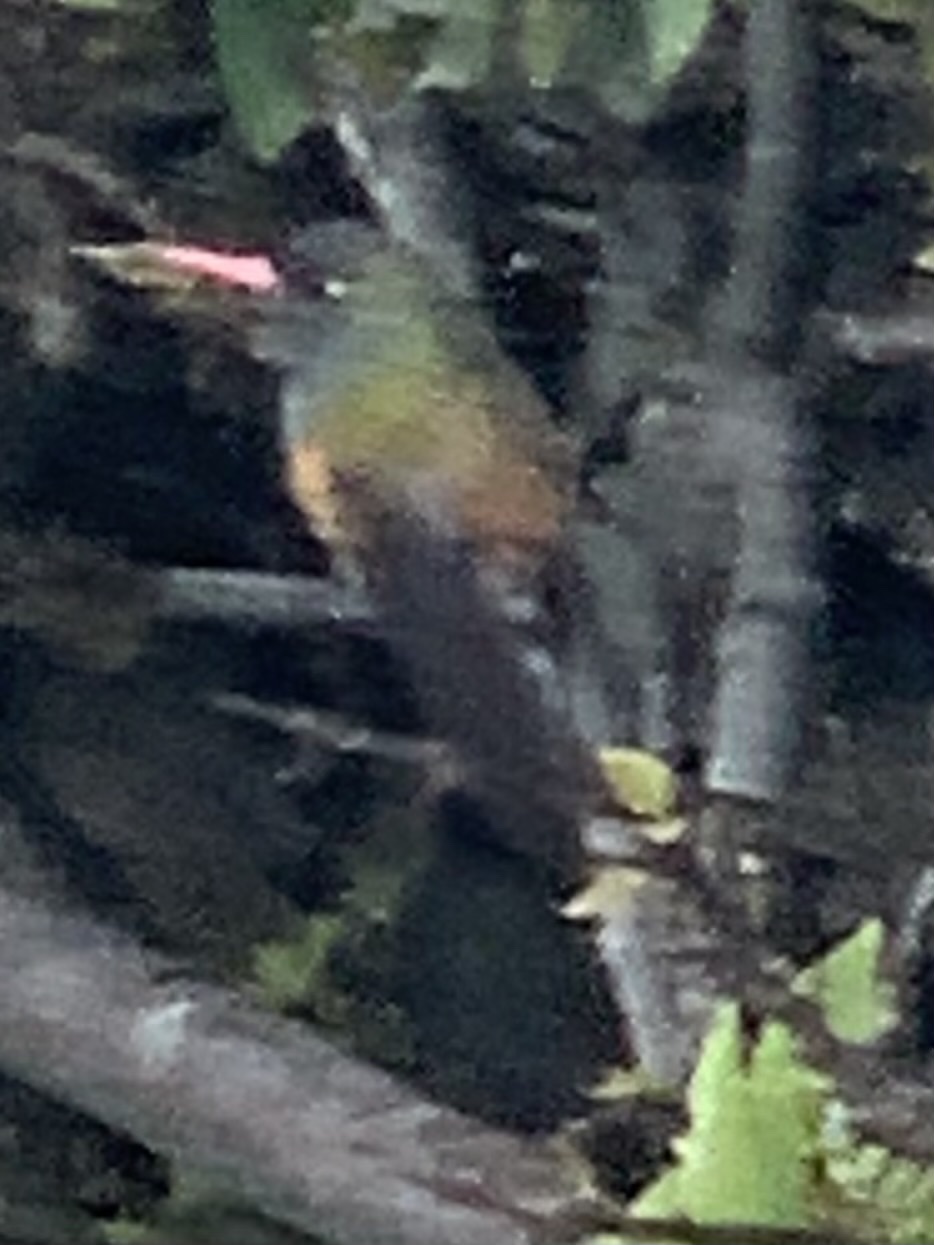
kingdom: Animalia
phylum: Chordata
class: Aves
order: Apodiformes
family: Trochilidae
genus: Amazilis
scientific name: Amazilis amazilia
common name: Amazilia hummingbird
